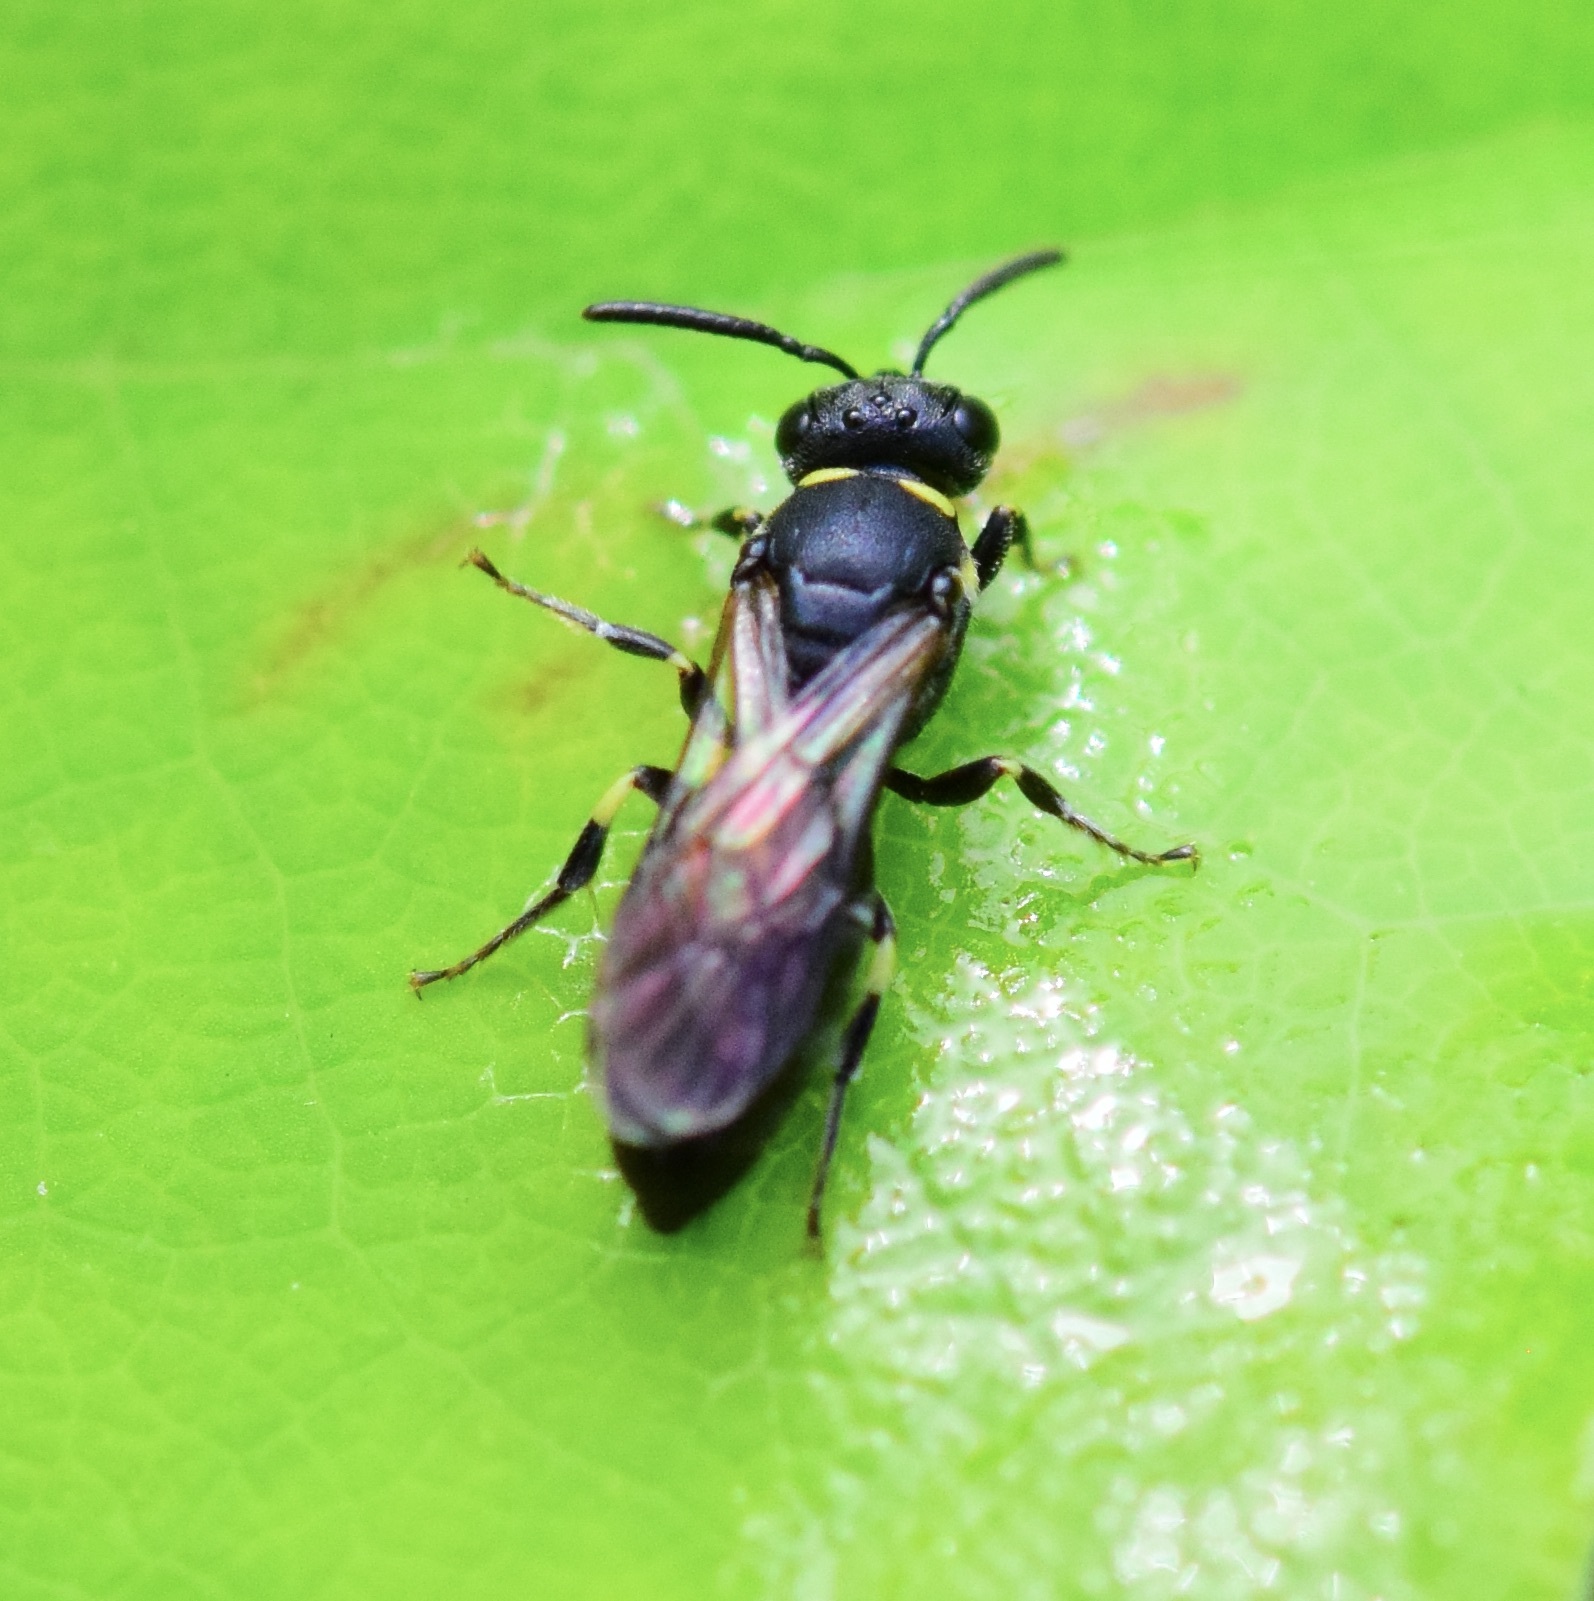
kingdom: Animalia
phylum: Arthropoda
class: Insecta
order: Hymenoptera
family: Colletidae
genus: Hylaeus
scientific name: Hylaeus modestus
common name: Yellow-faced bee
